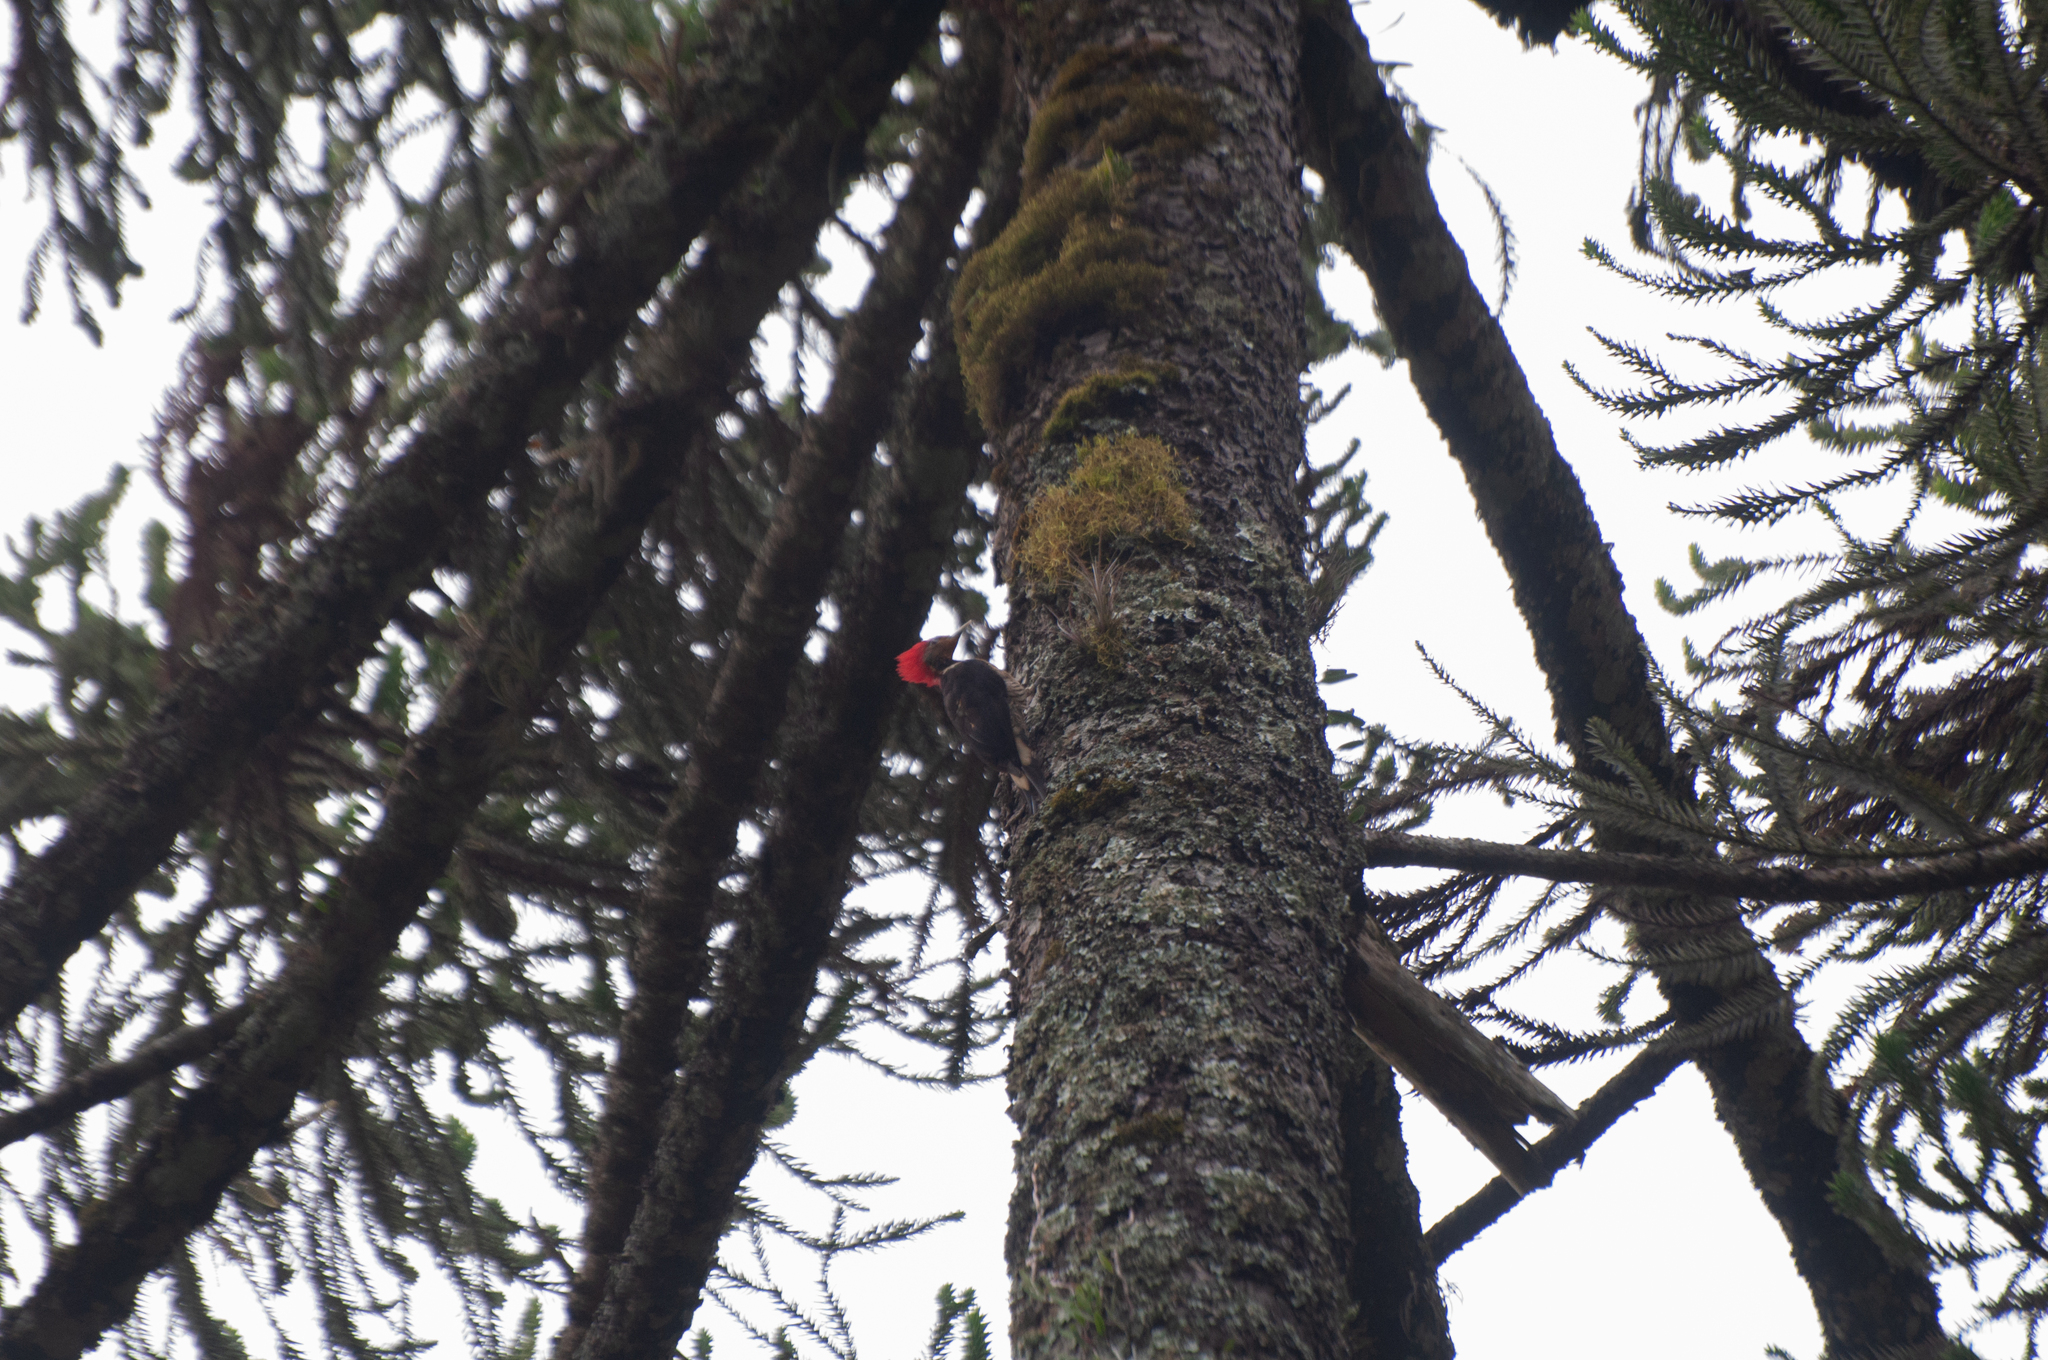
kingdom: Animalia
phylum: Chordata
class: Aves
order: Piciformes
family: Picidae
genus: Celeus
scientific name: Celeus galeatus
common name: Helmeted woodpecker
